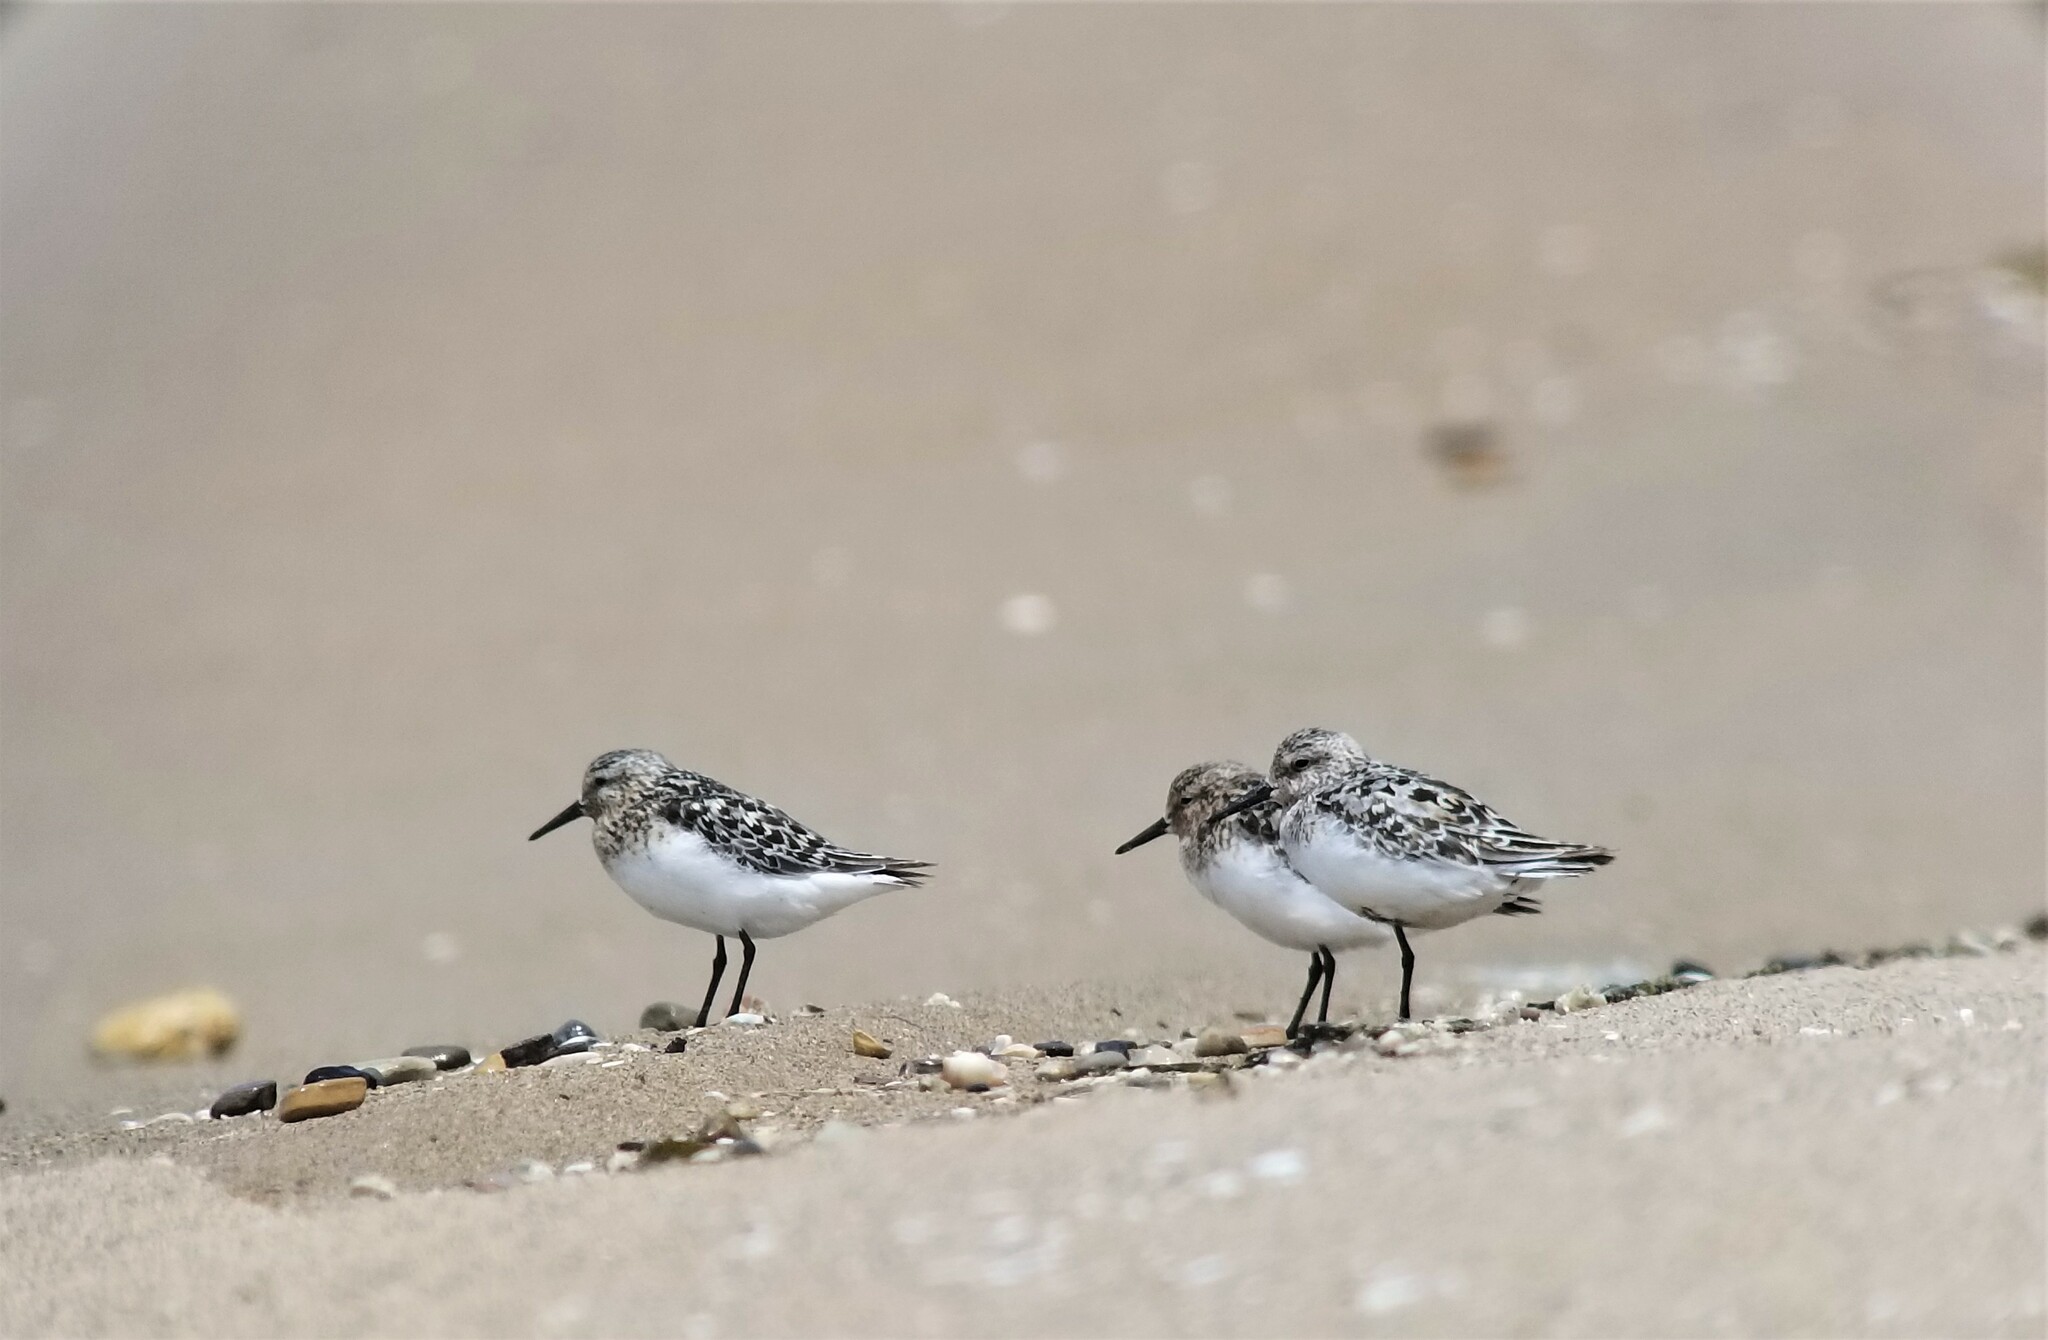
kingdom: Animalia
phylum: Chordata
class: Aves
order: Charadriiformes
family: Scolopacidae
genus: Calidris
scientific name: Calidris alba
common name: Sanderling
